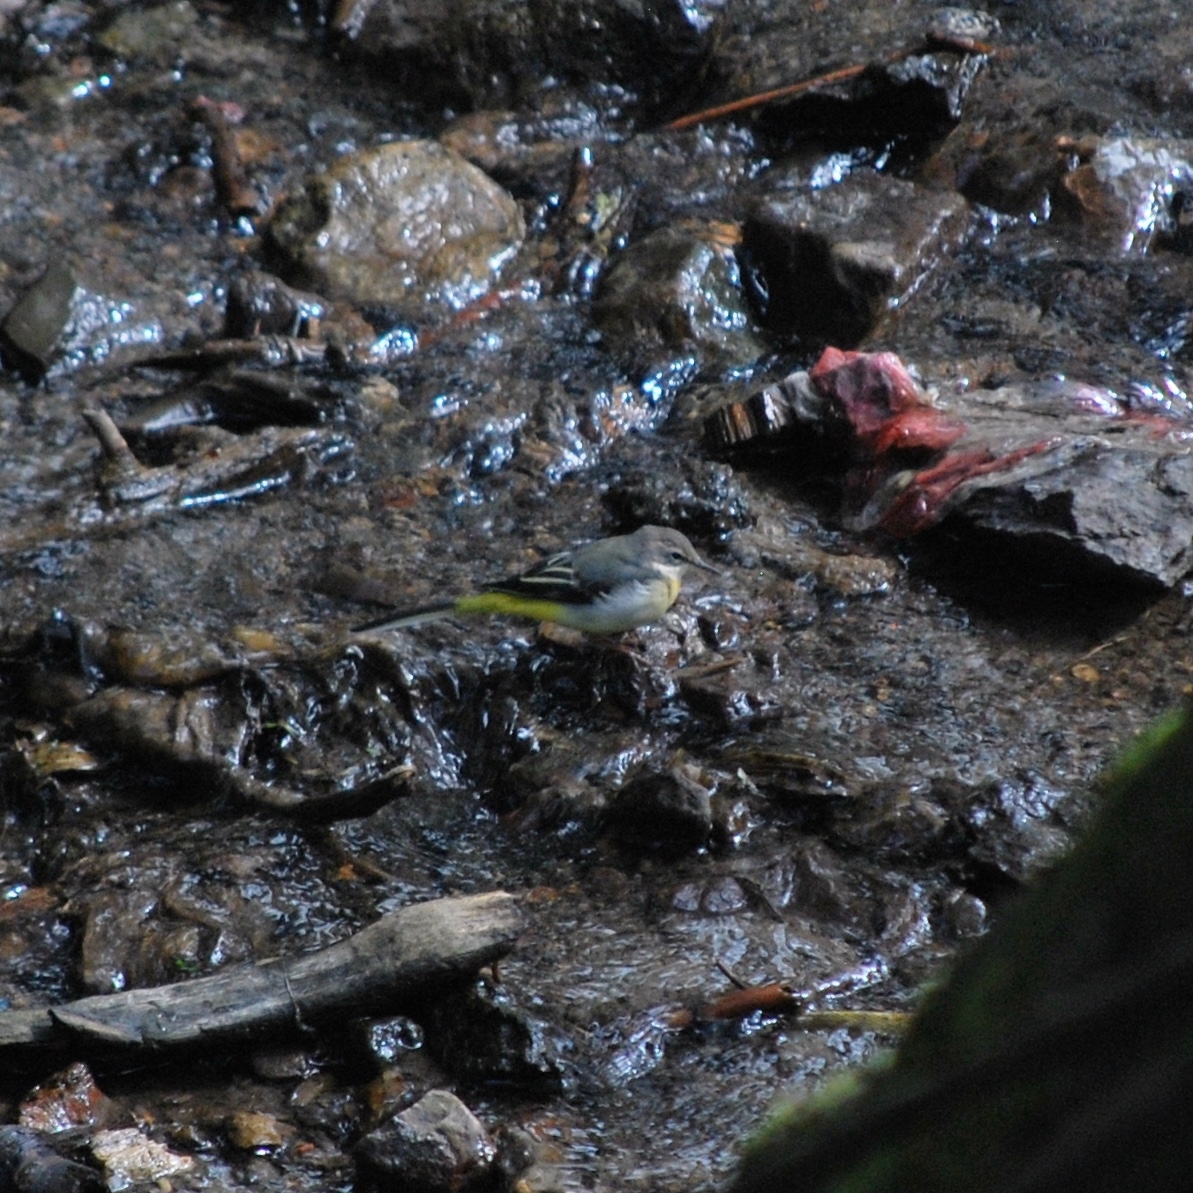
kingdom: Animalia
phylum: Chordata
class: Aves
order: Passeriformes
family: Motacillidae
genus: Motacilla
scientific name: Motacilla cinerea
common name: Grey wagtail
